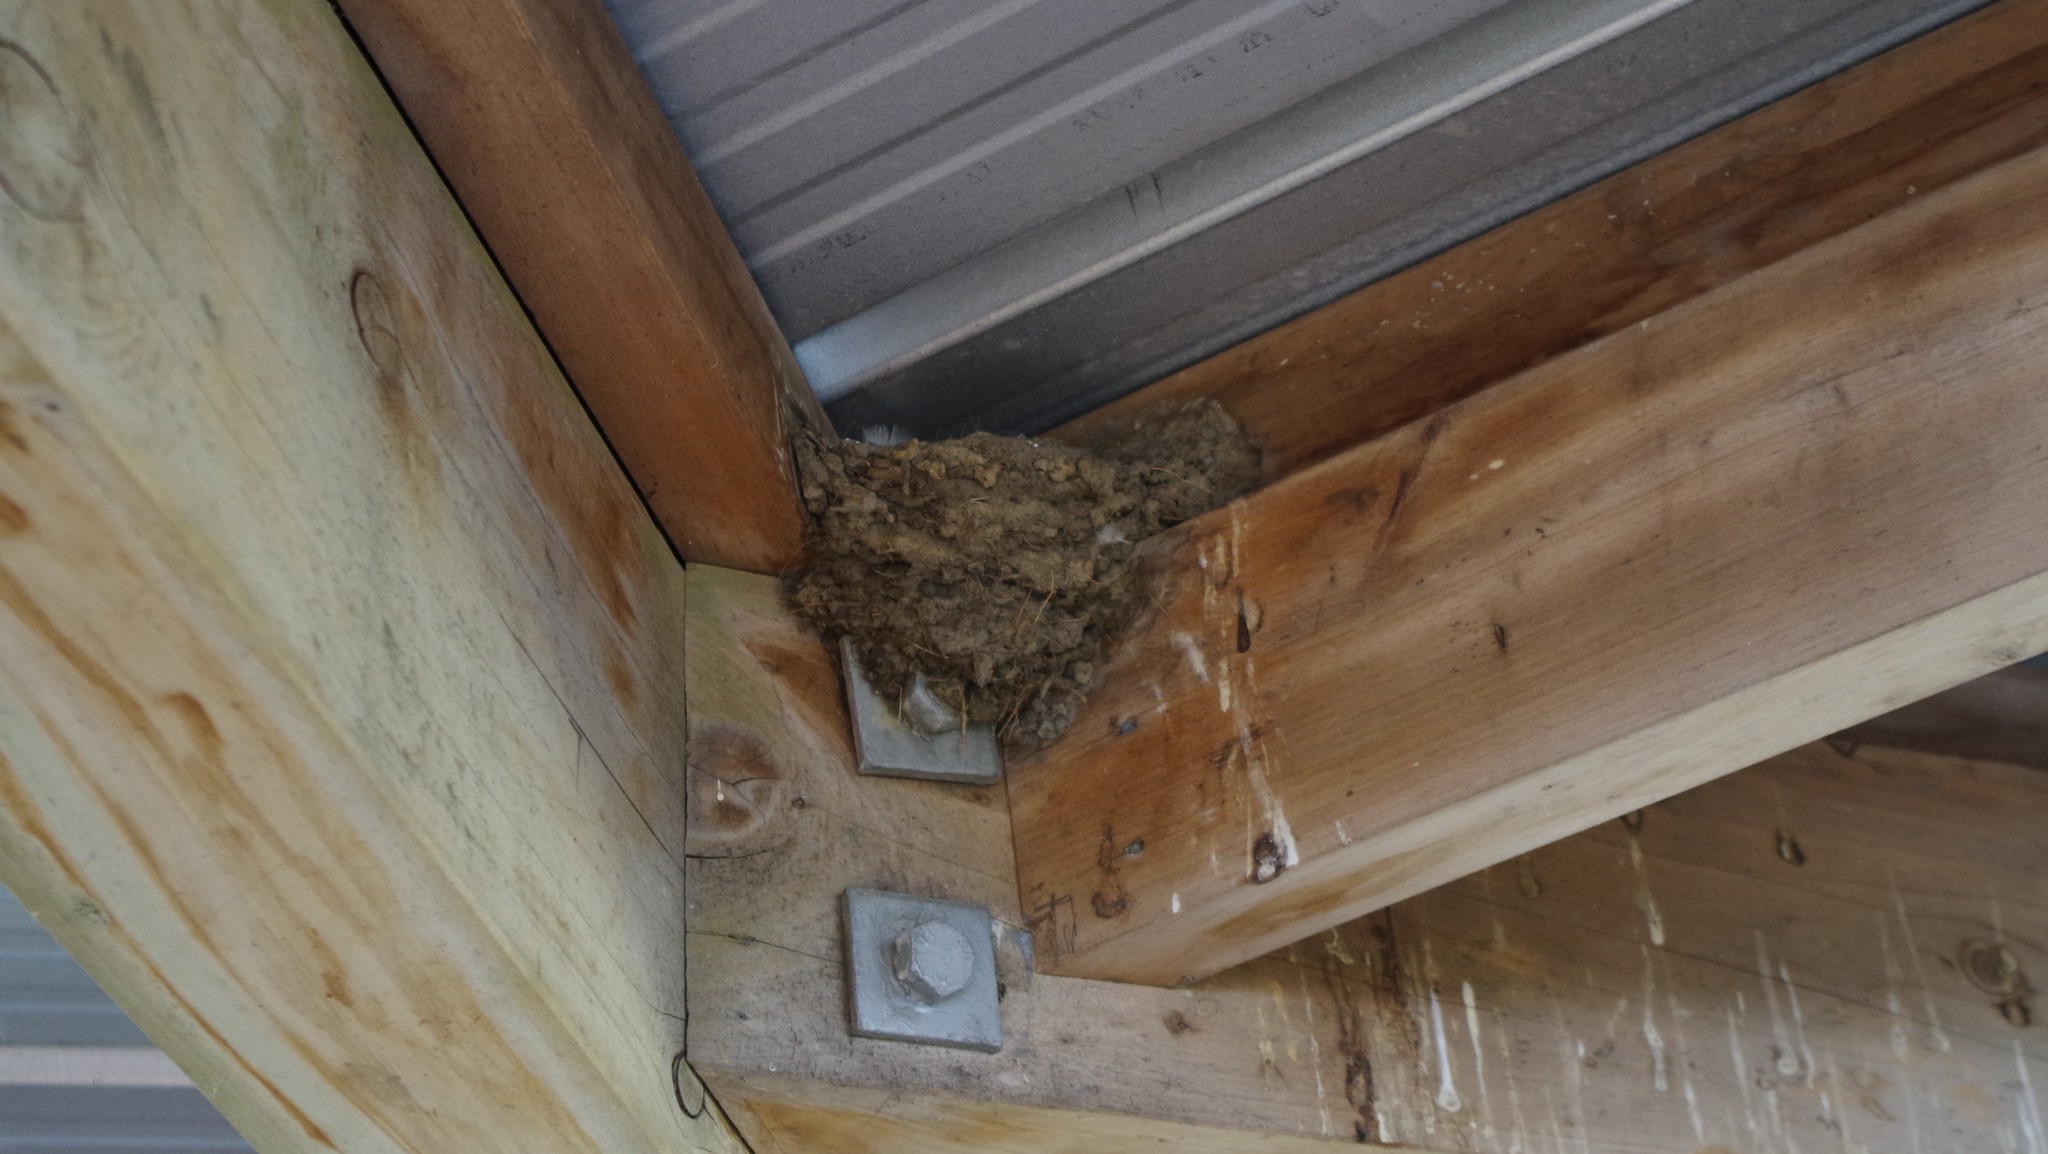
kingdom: Animalia
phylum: Chordata
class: Aves
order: Passeriformes
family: Hirundinidae
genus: Hirundo
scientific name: Hirundo neoxena
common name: Welcome swallow
